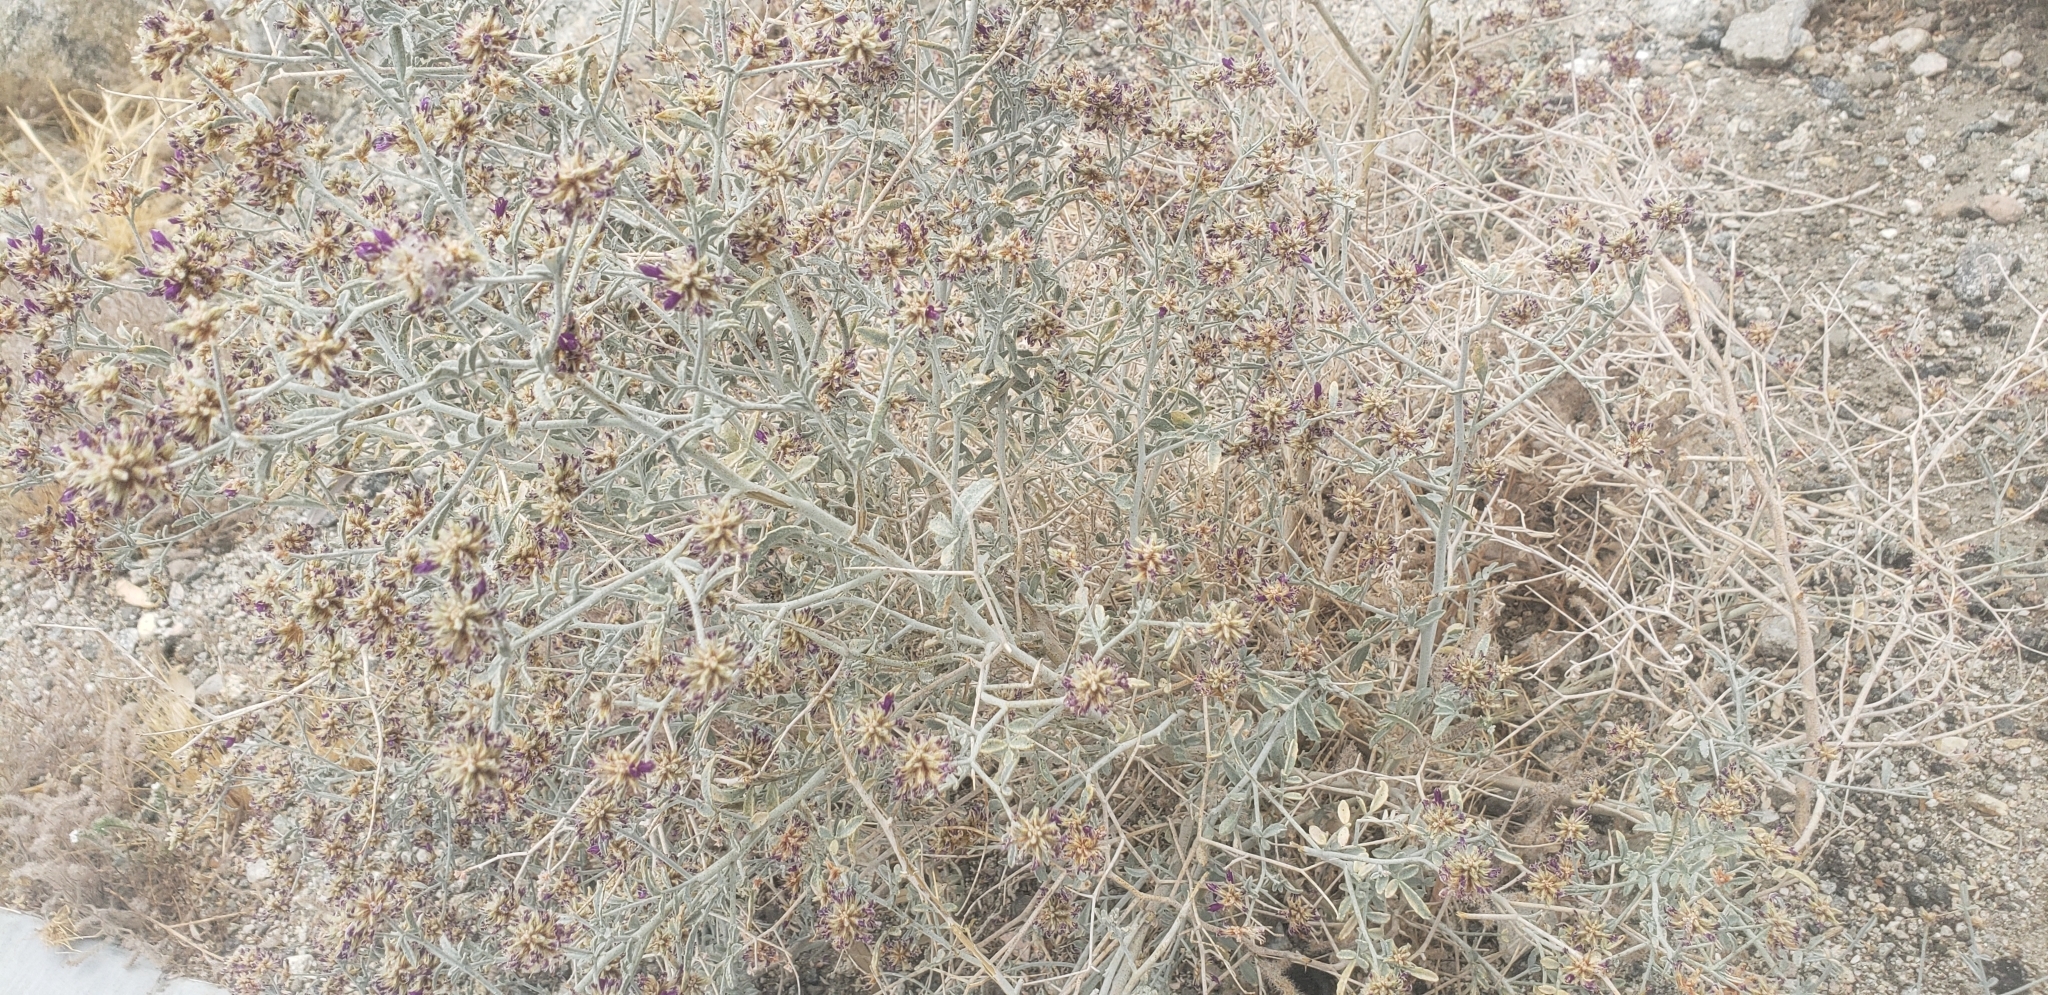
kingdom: Plantae
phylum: Tracheophyta
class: Magnoliopsida
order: Fabales
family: Fabaceae
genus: Psorothamnus
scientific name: Psorothamnus emoryi
